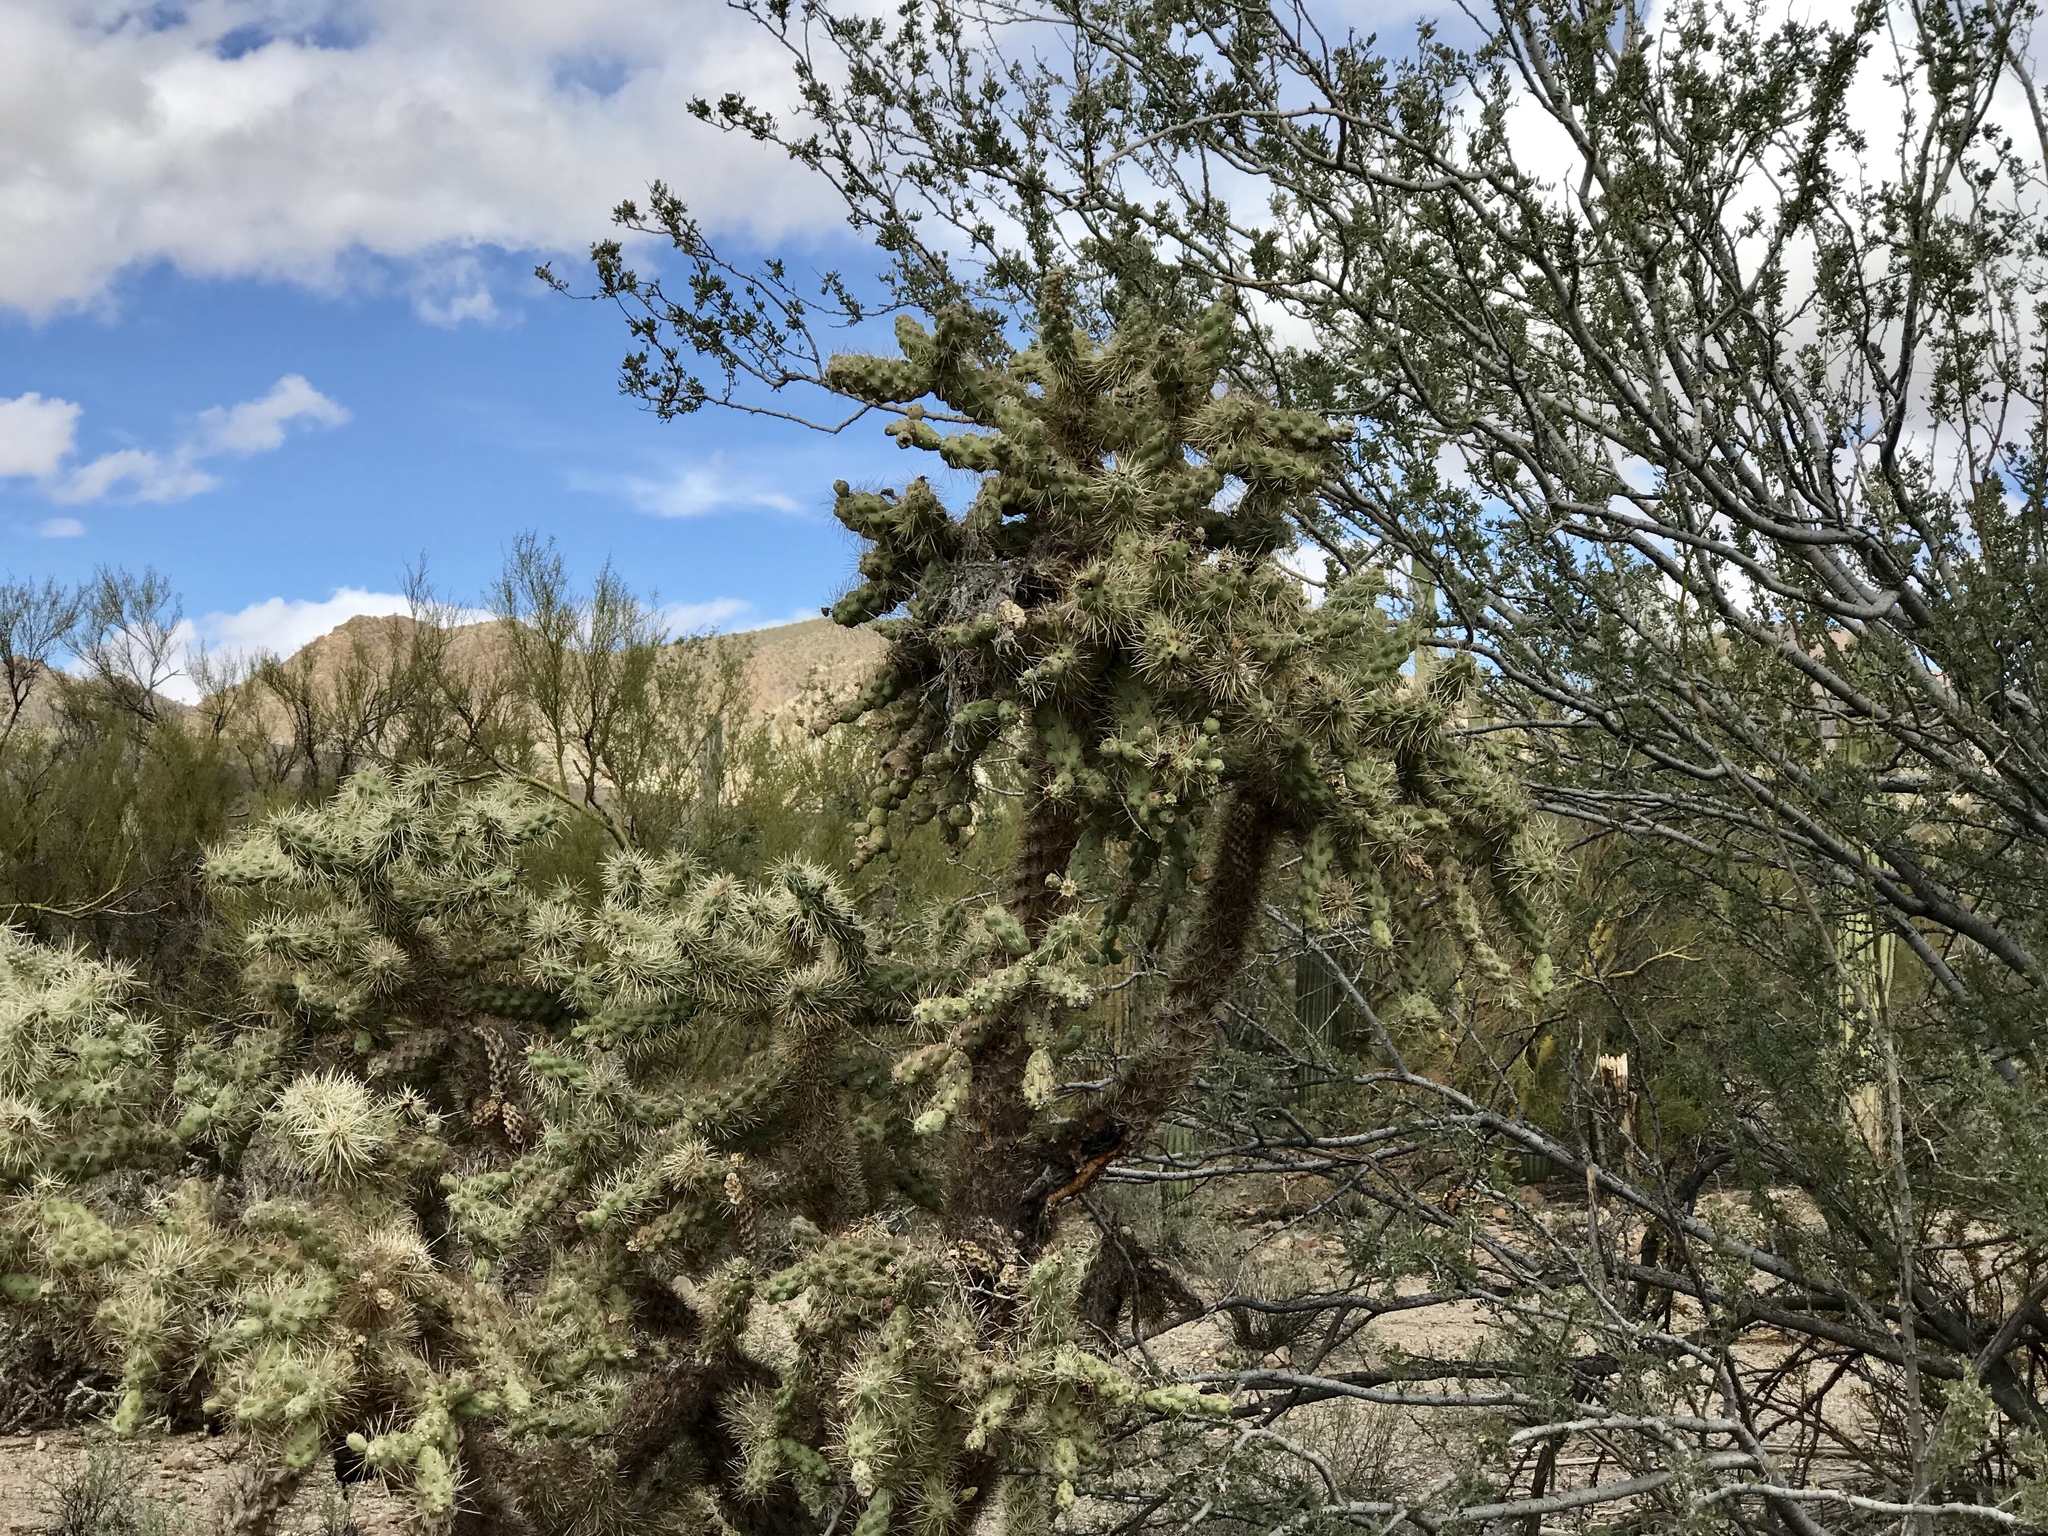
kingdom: Plantae
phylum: Tracheophyta
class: Magnoliopsida
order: Caryophyllales
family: Cactaceae
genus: Cylindropuntia
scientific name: Cylindropuntia fulgida
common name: Jumping cholla
